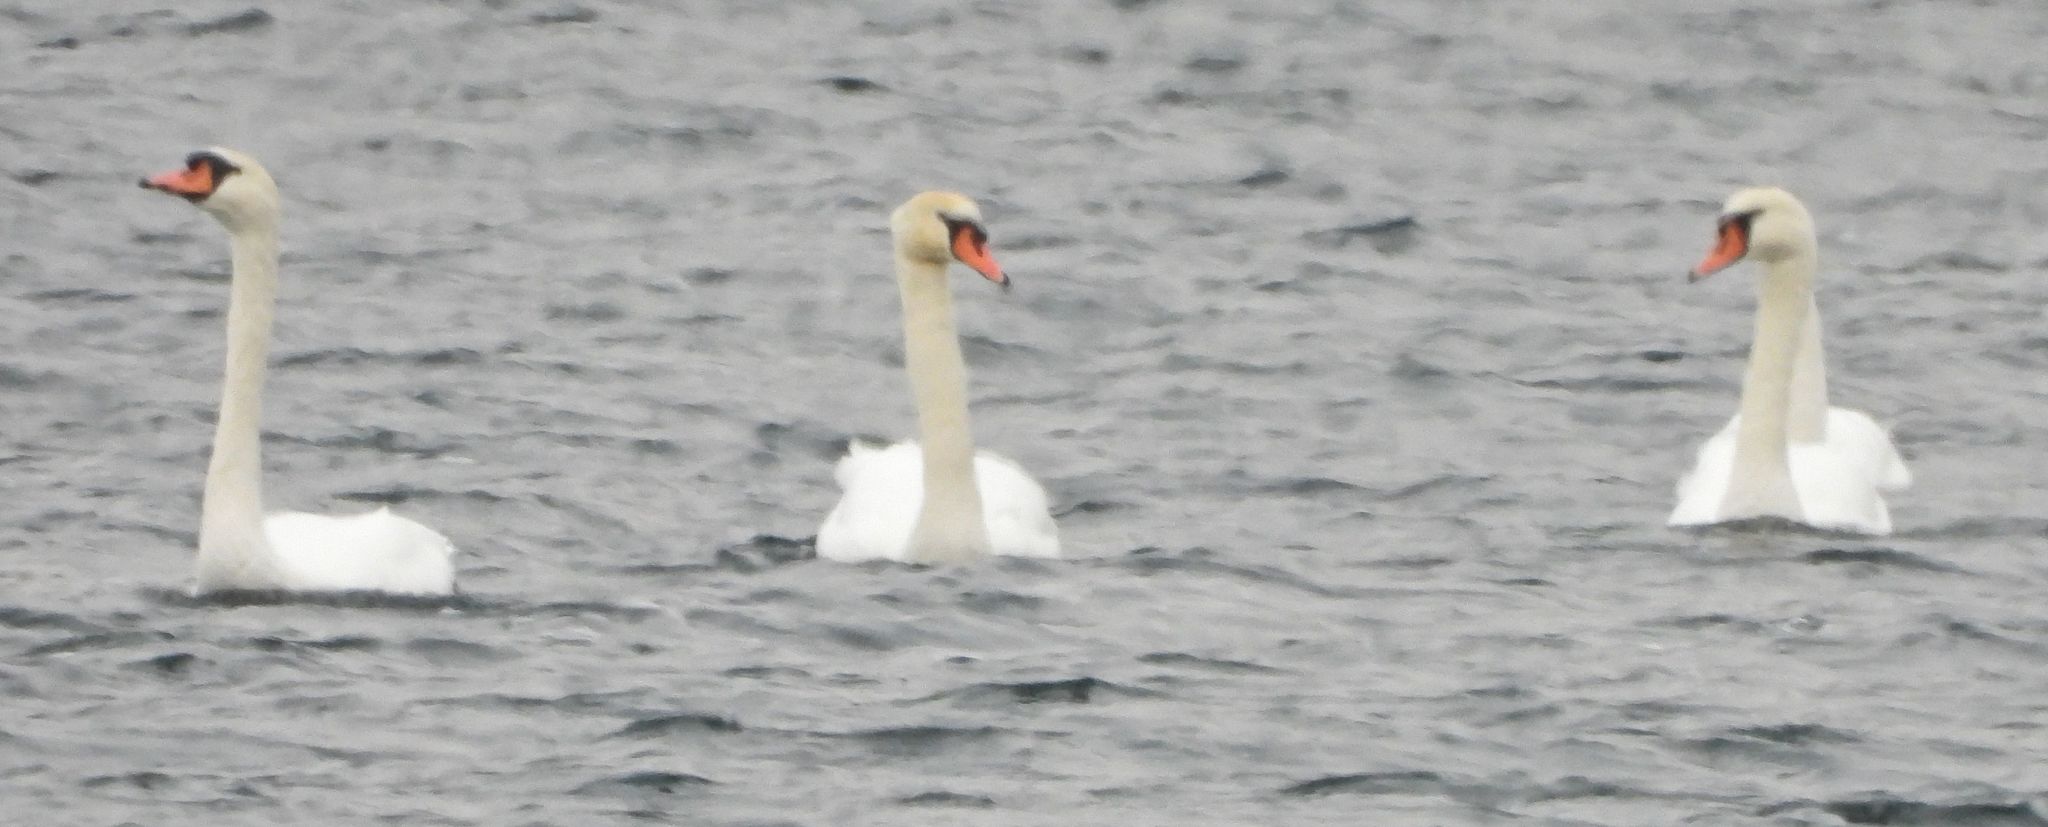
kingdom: Animalia
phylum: Chordata
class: Aves
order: Anseriformes
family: Anatidae
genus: Cygnus
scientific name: Cygnus olor
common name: Mute swan
